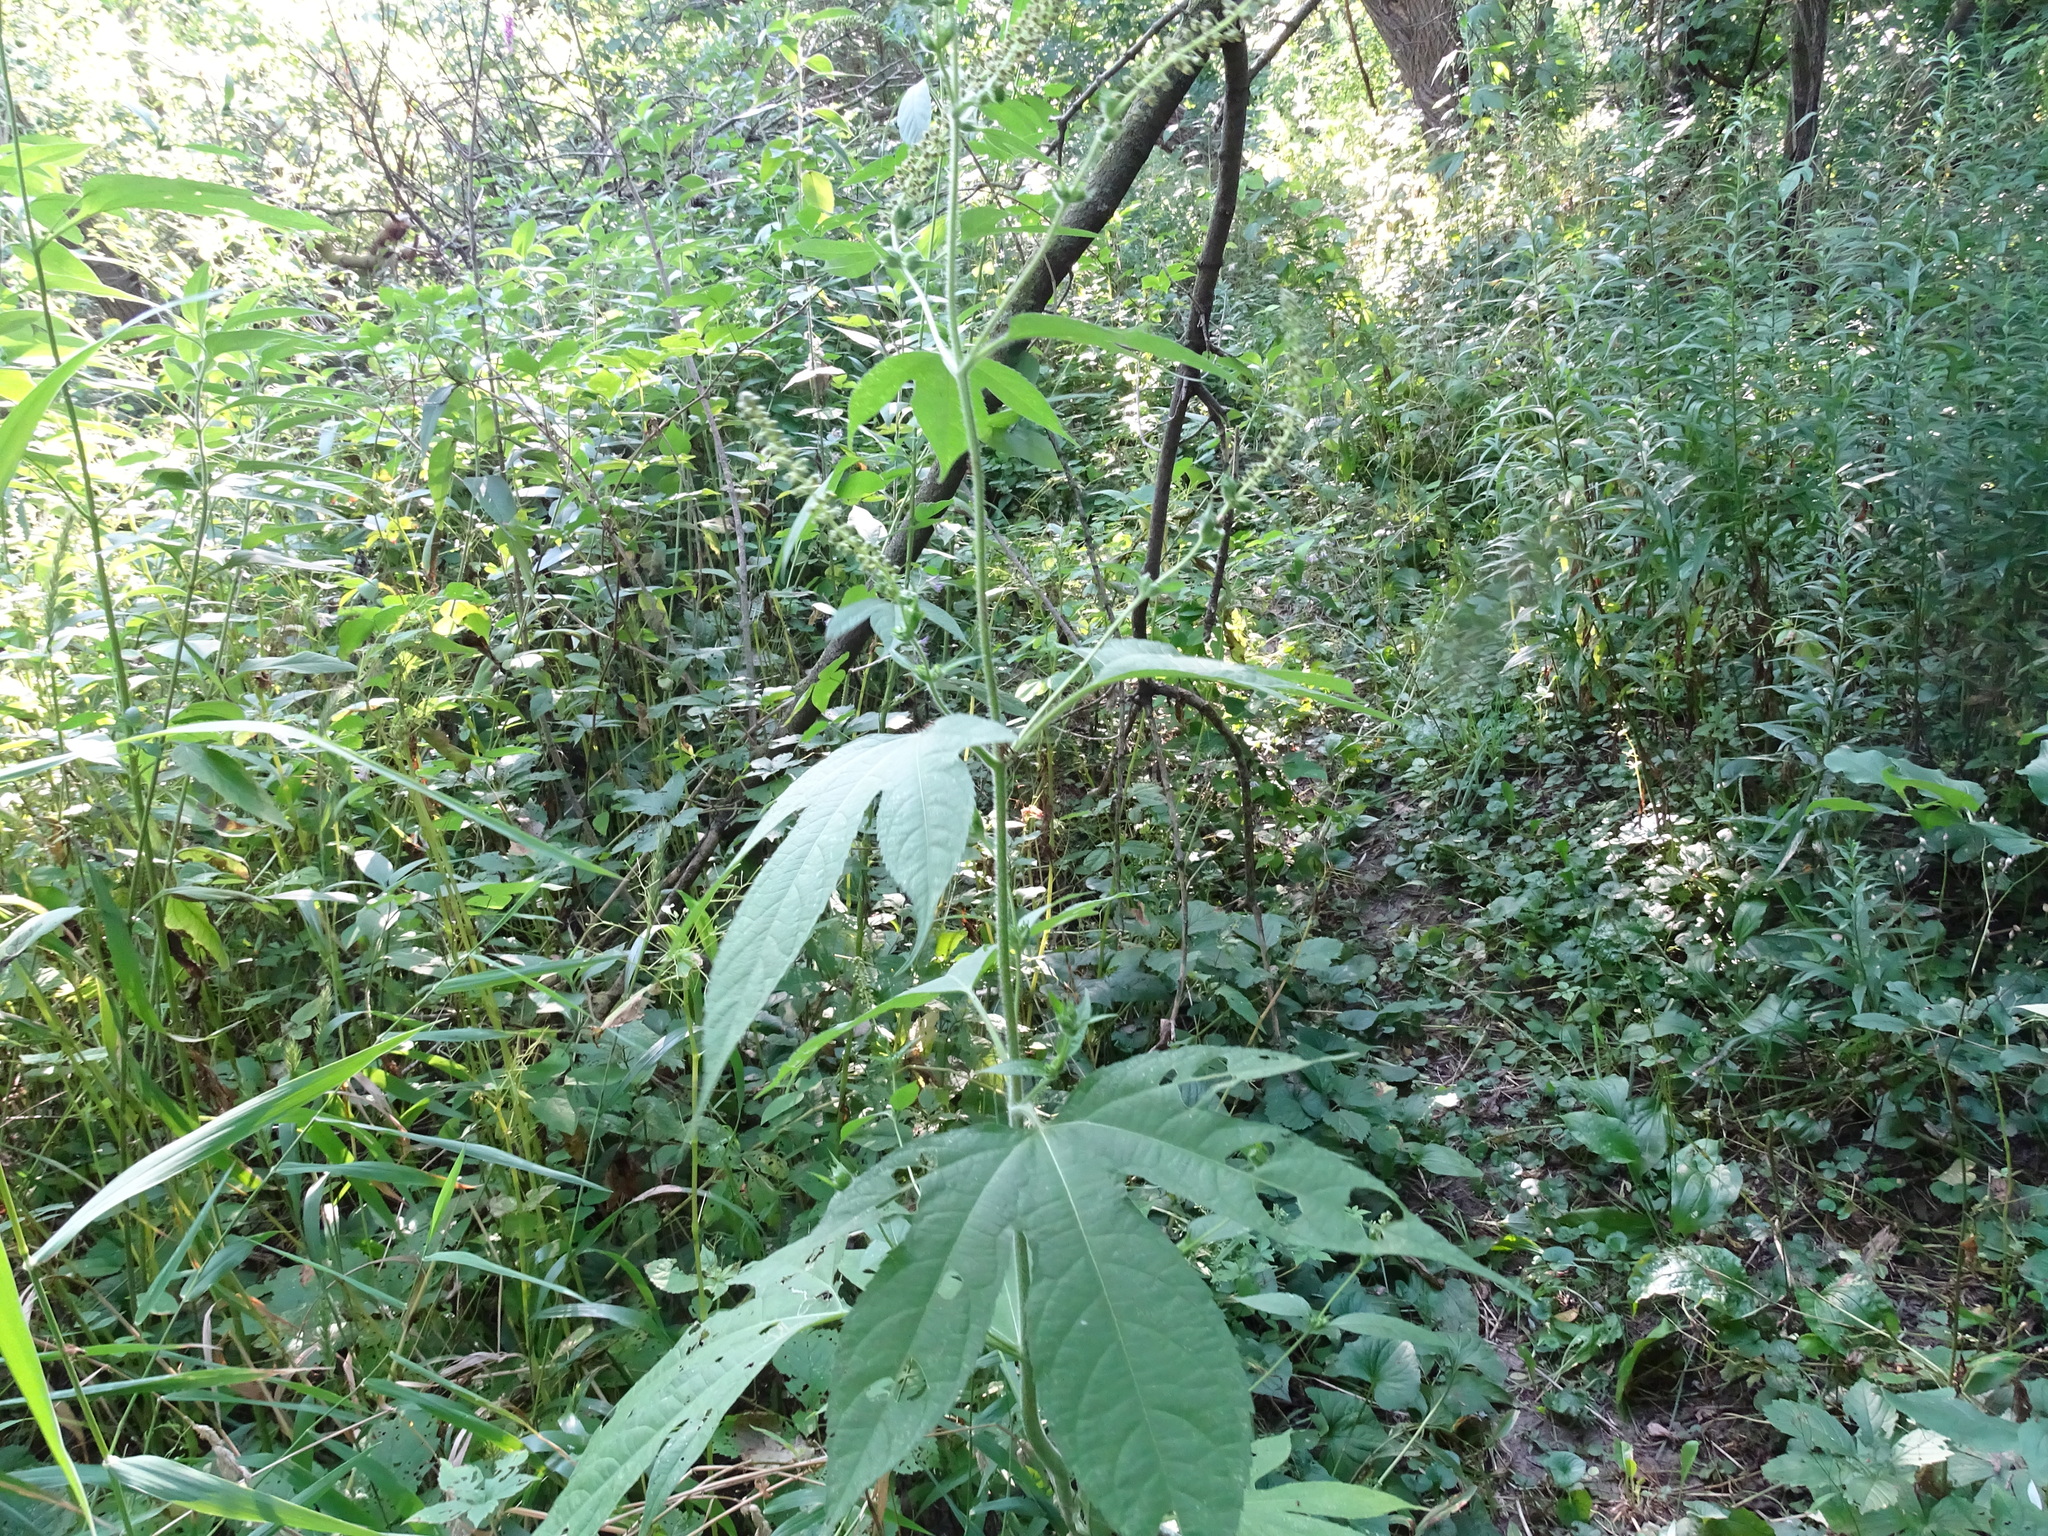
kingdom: Plantae
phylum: Tracheophyta
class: Magnoliopsida
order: Asterales
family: Asteraceae
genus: Ambrosia
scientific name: Ambrosia trifida
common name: Giant ragweed
